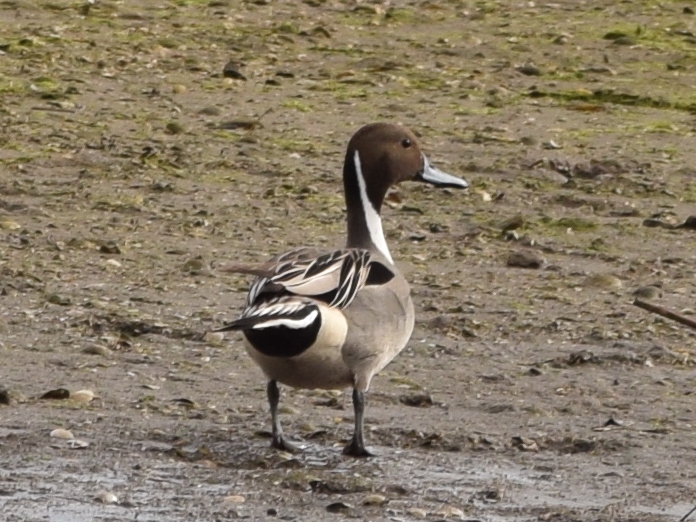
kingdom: Animalia
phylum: Chordata
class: Aves
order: Anseriformes
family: Anatidae
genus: Anas
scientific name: Anas acuta
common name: Northern pintail
